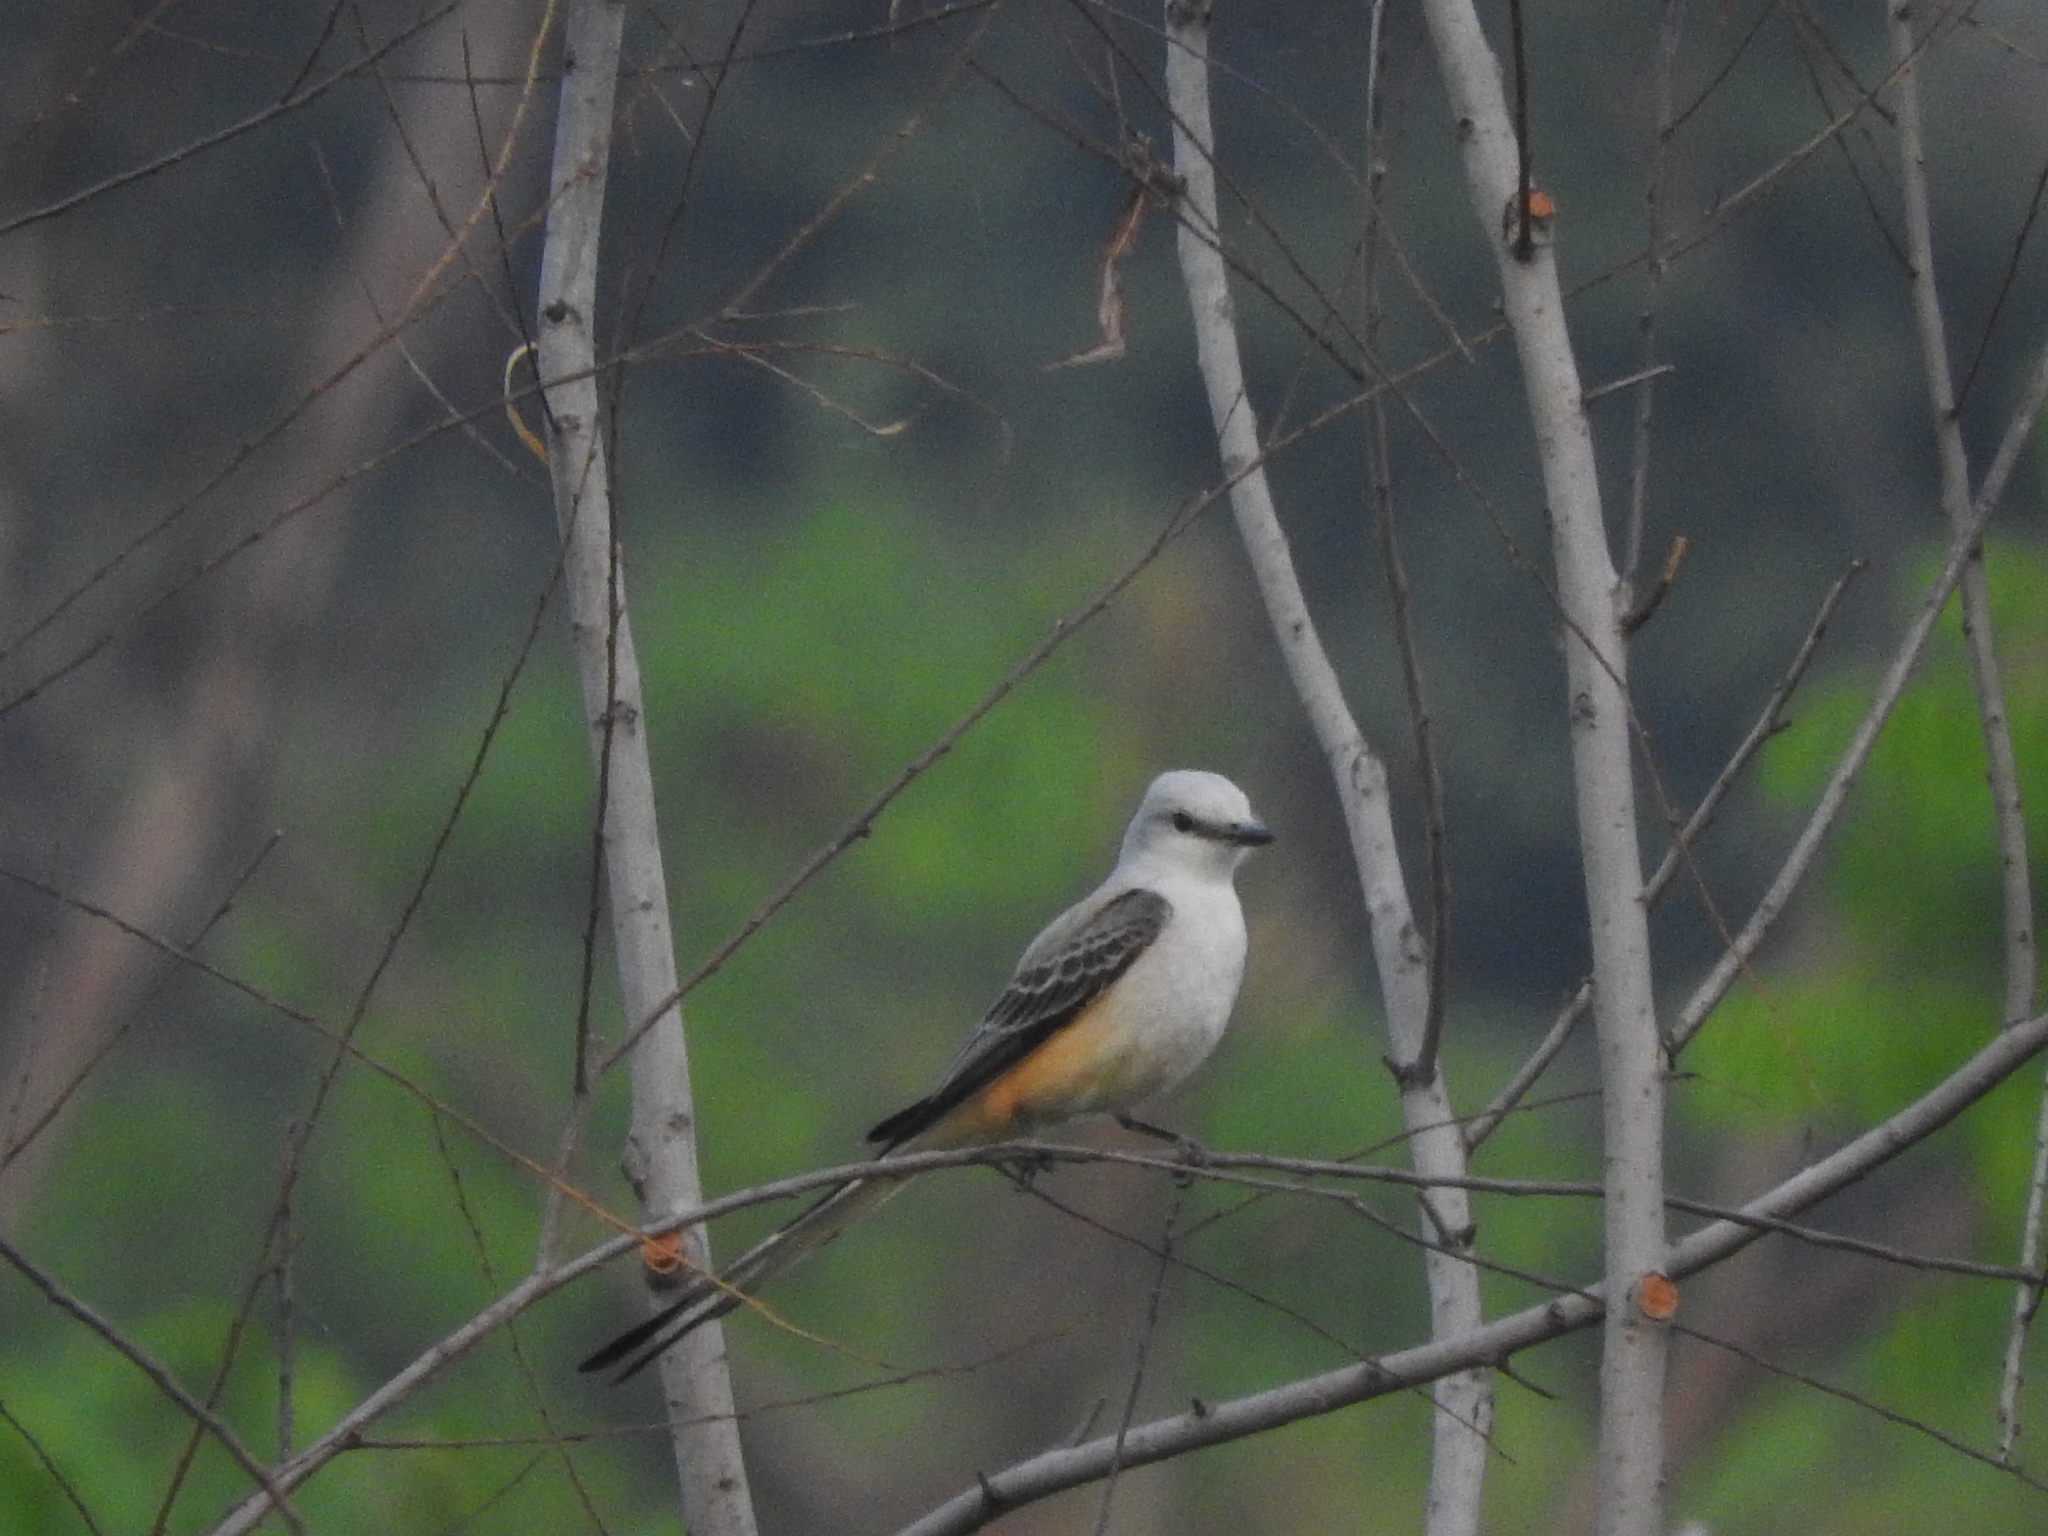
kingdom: Animalia
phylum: Chordata
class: Aves
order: Passeriformes
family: Tyrannidae
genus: Tyrannus
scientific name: Tyrannus forficatus
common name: Scissor-tailed flycatcher
